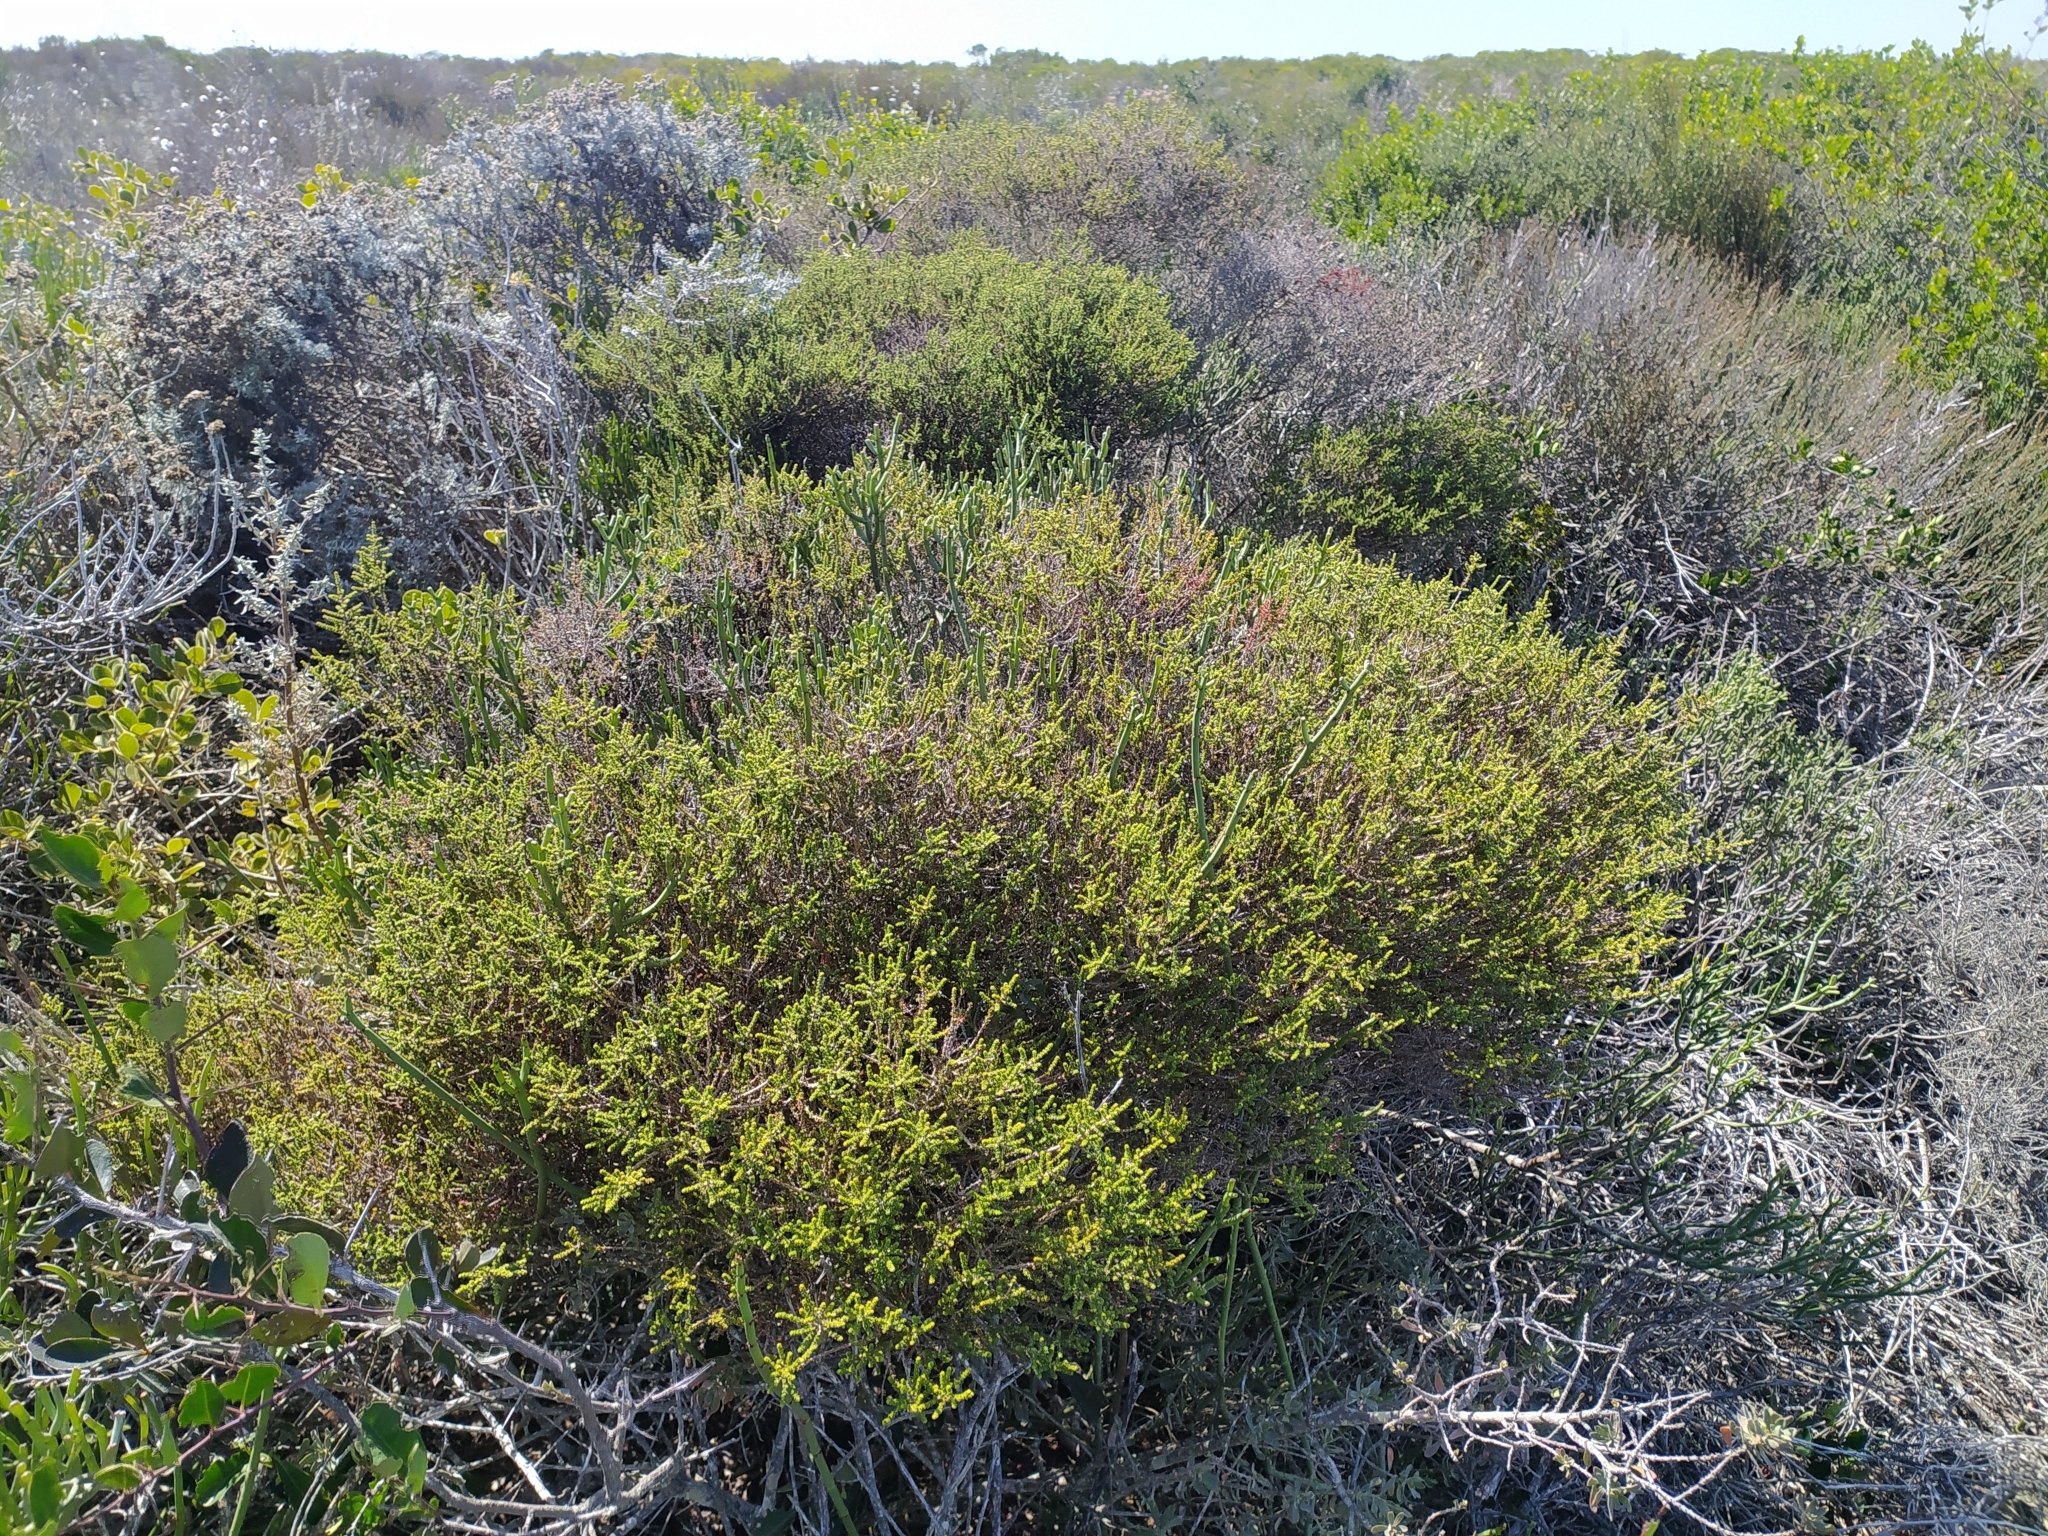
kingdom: Plantae
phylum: Tracheophyta
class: Magnoliopsida
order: Fabales
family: Fabaceae
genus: Aspalathus
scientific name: Aspalathus hispida
